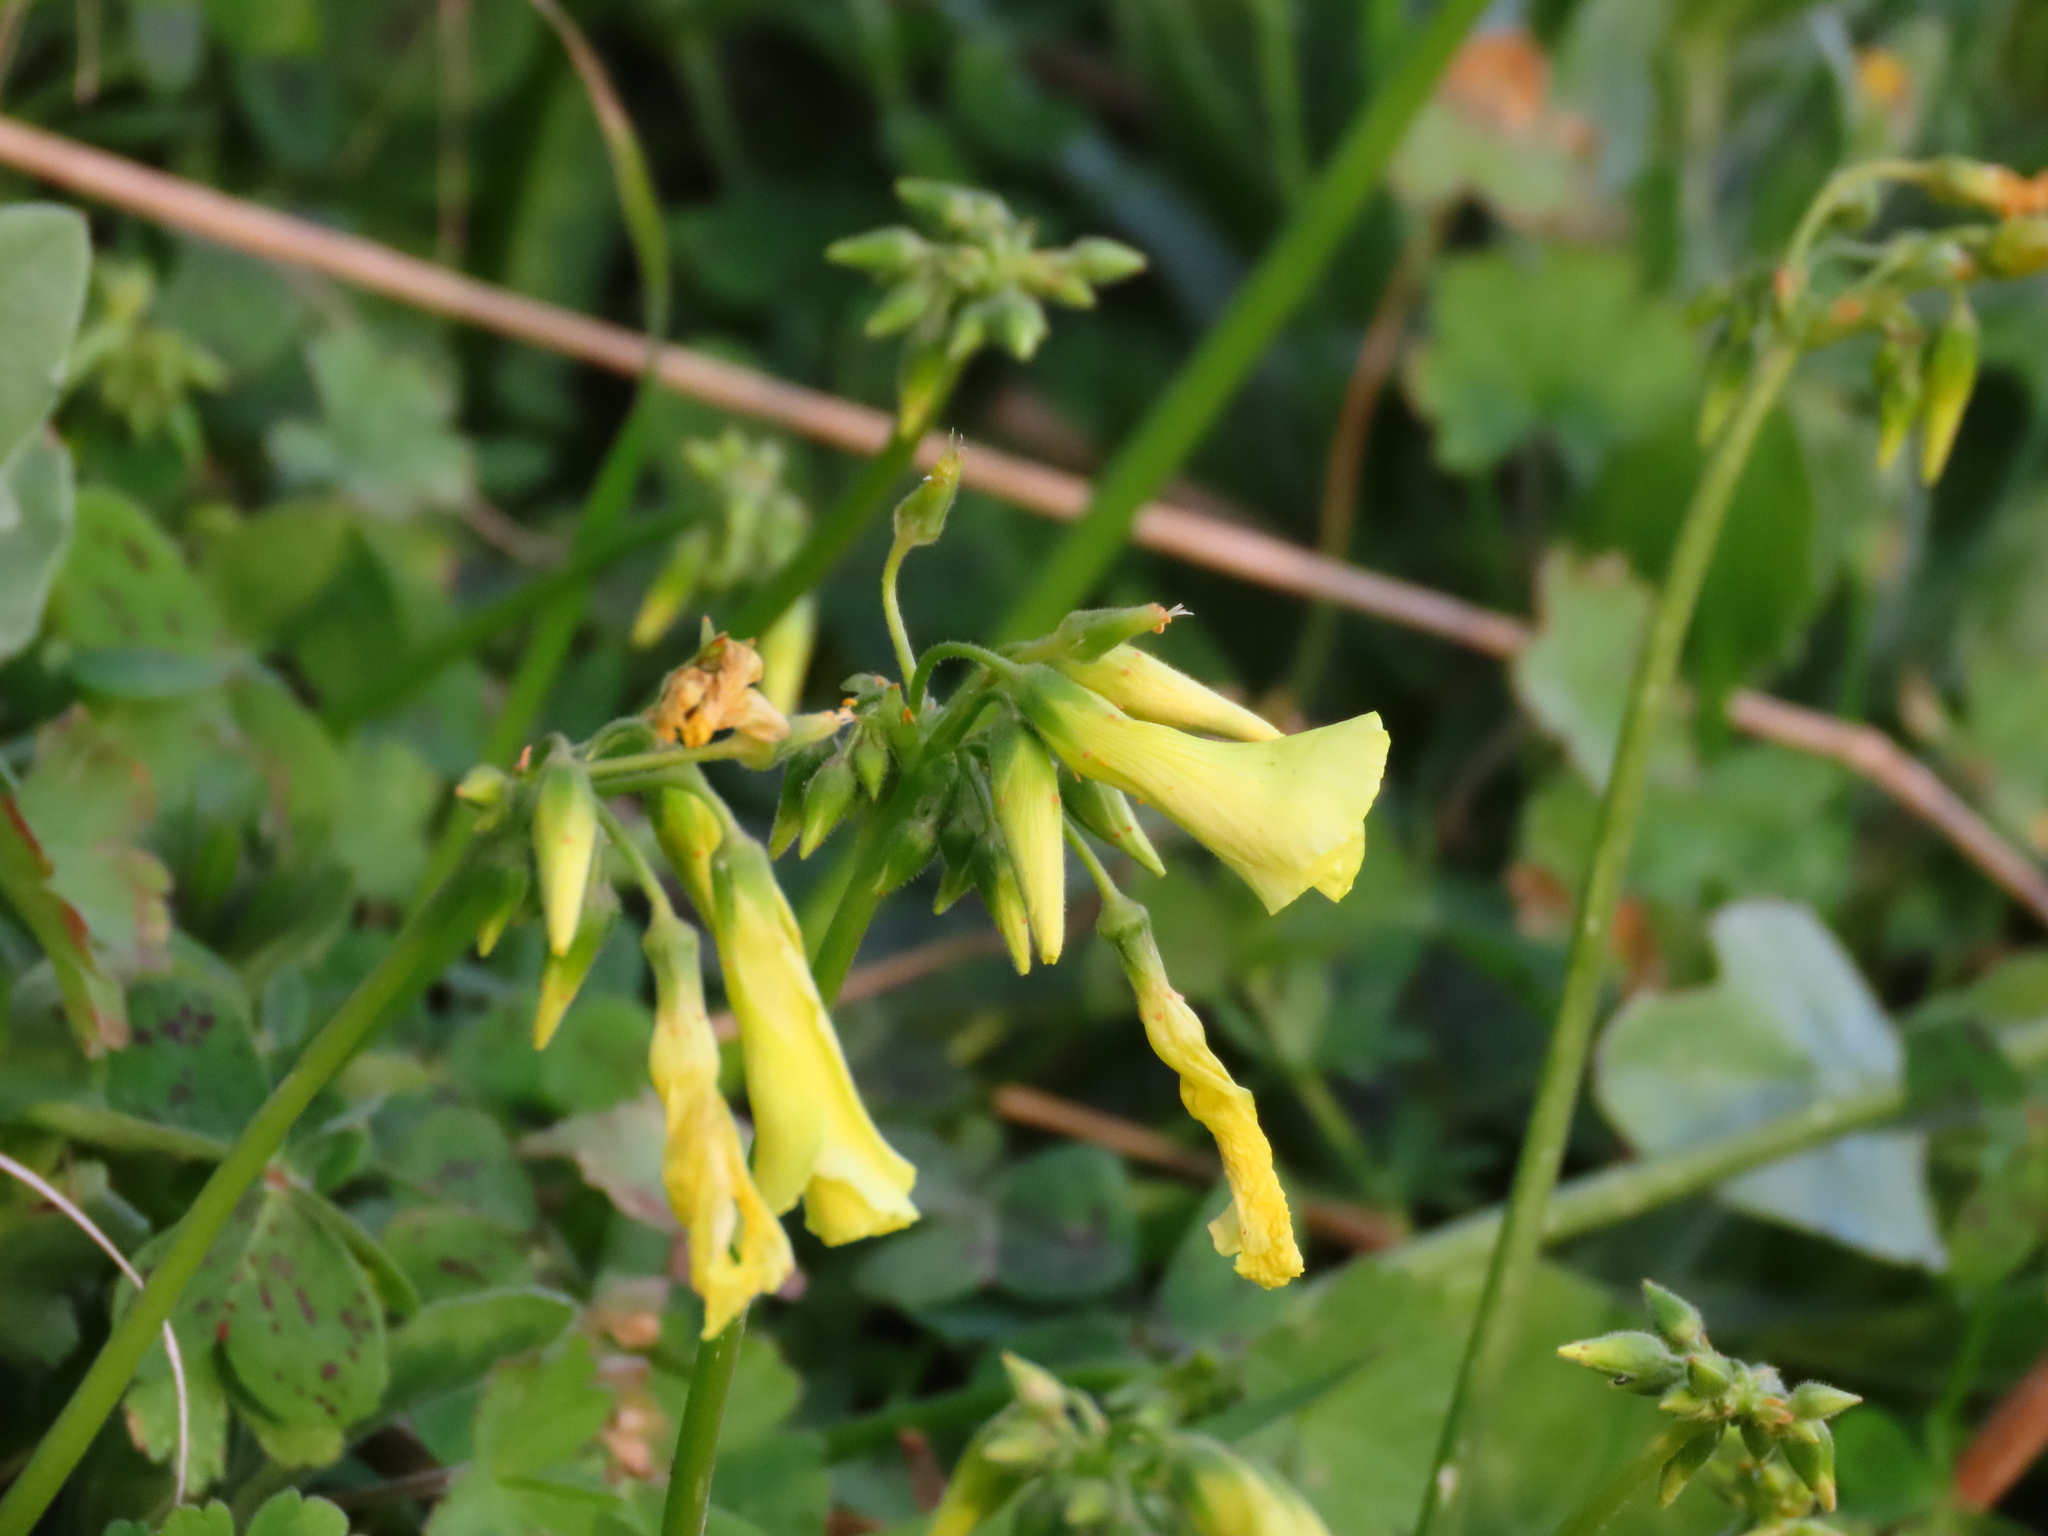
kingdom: Plantae
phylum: Tracheophyta
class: Magnoliopsida
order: Oxalidales
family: Oxalidaceae
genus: Oxalis
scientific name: Oxalis pes-caprae
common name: Bermuda-buttercup
